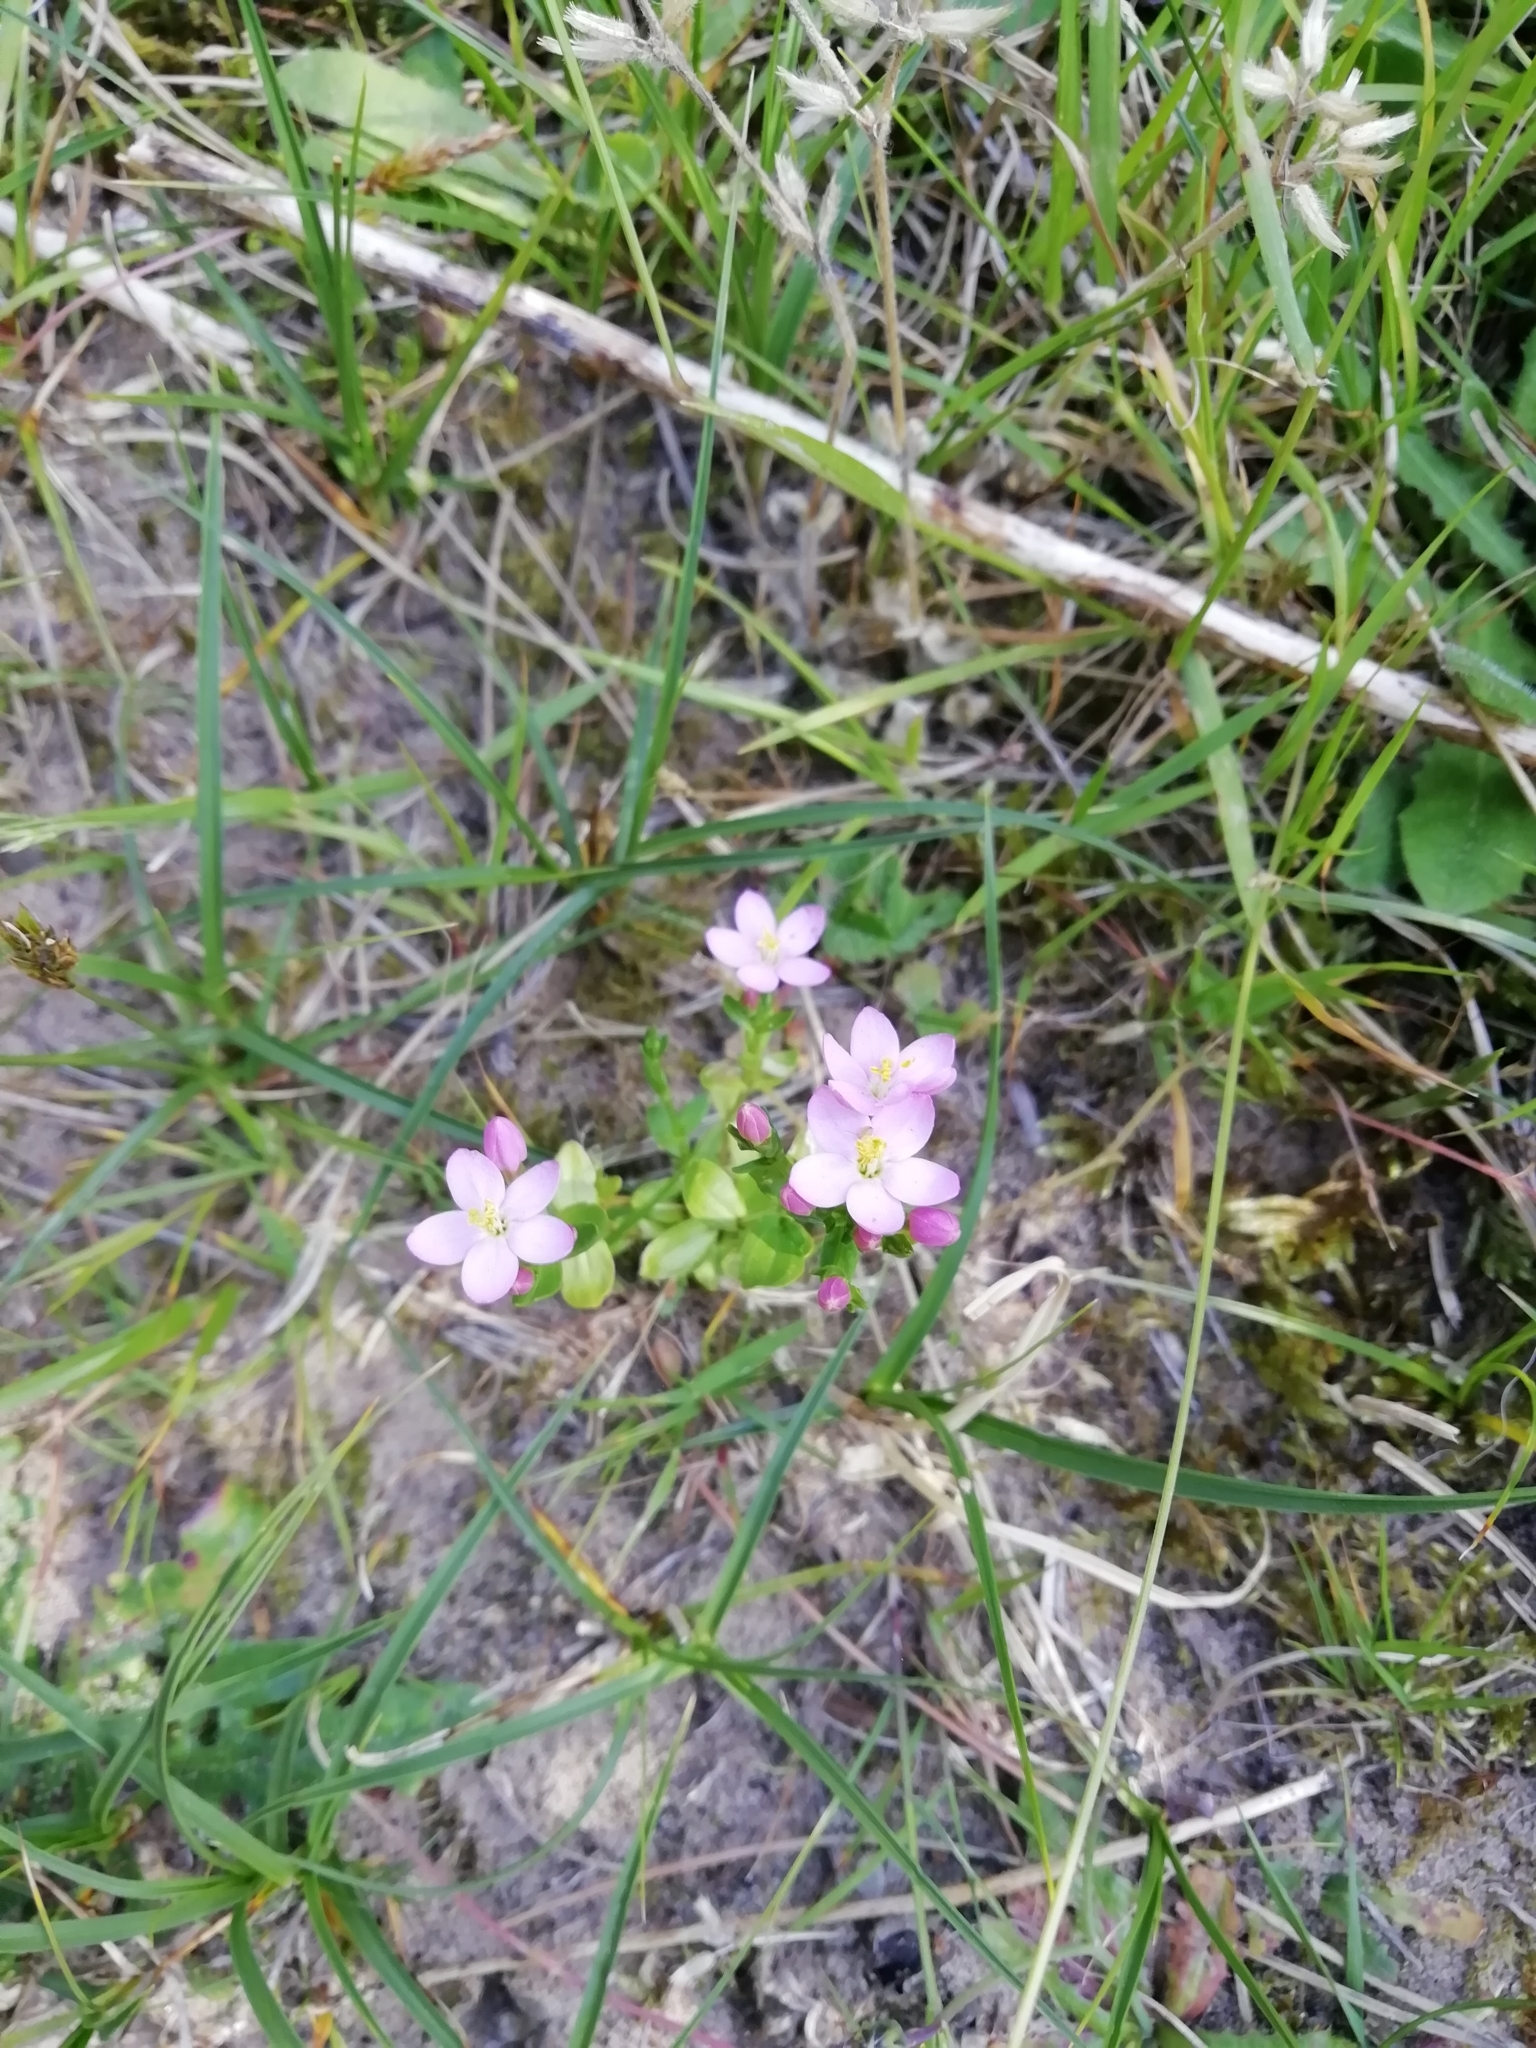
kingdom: Plantae
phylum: Tracheophyta
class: Magnoliopsida
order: Gentianales
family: Gentianaceae
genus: Centaurium
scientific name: Centaurium erythraea
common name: Common centaury
